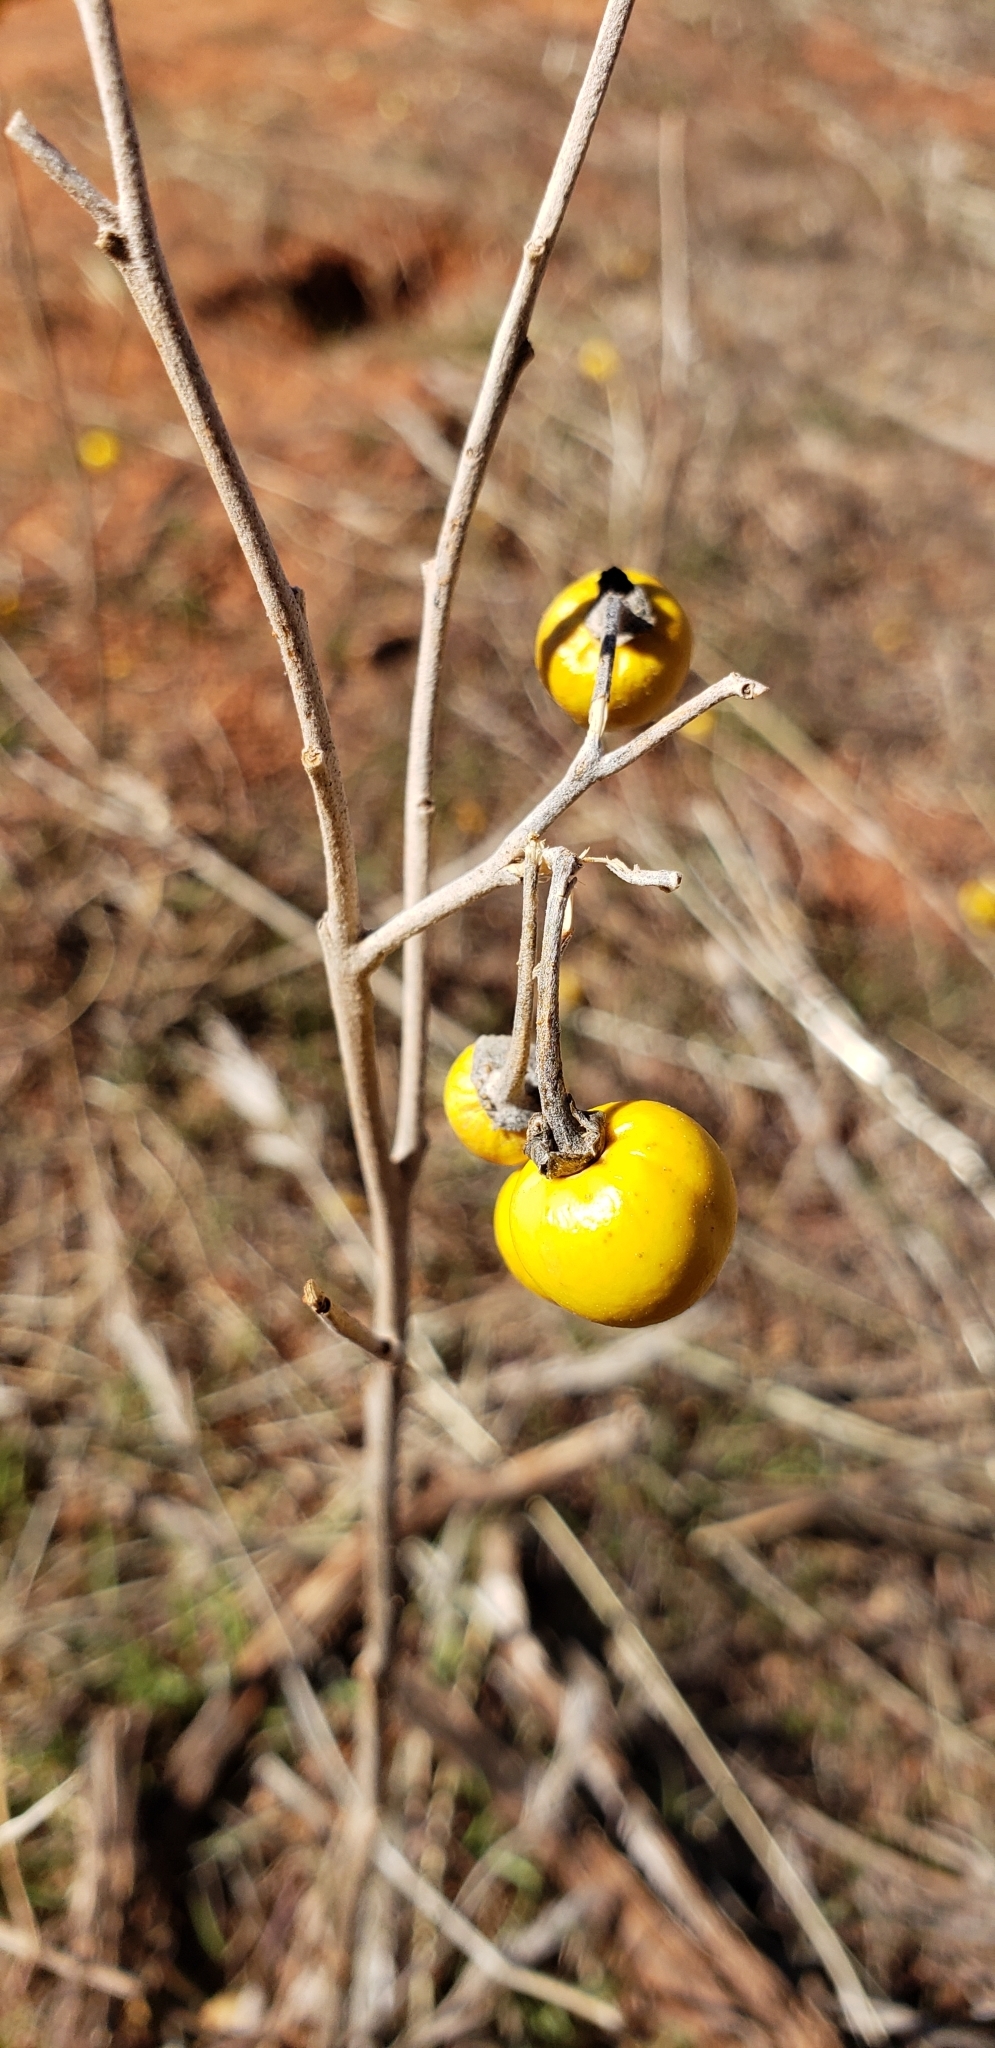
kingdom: Plantae
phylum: Tracheophyta
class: Magnoliopsida
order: Solanales
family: Solanaceae
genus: Solanum
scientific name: Solanum elaeagnifolium
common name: Silverleaf nightshade
